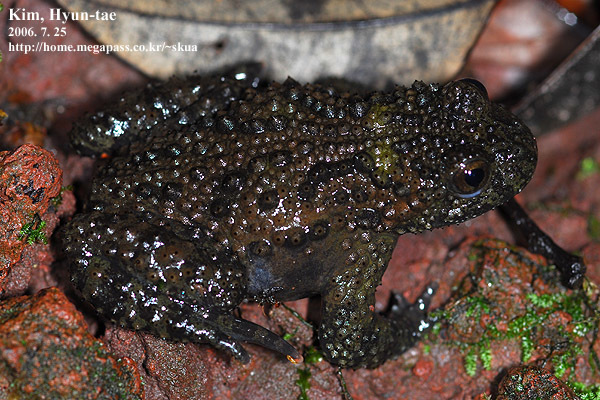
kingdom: Animalia
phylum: Chordata
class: Amphibia
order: Anura
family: Bombinatoridae
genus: Bombina
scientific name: Bombina orientalis
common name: Oriental firebelly toad
